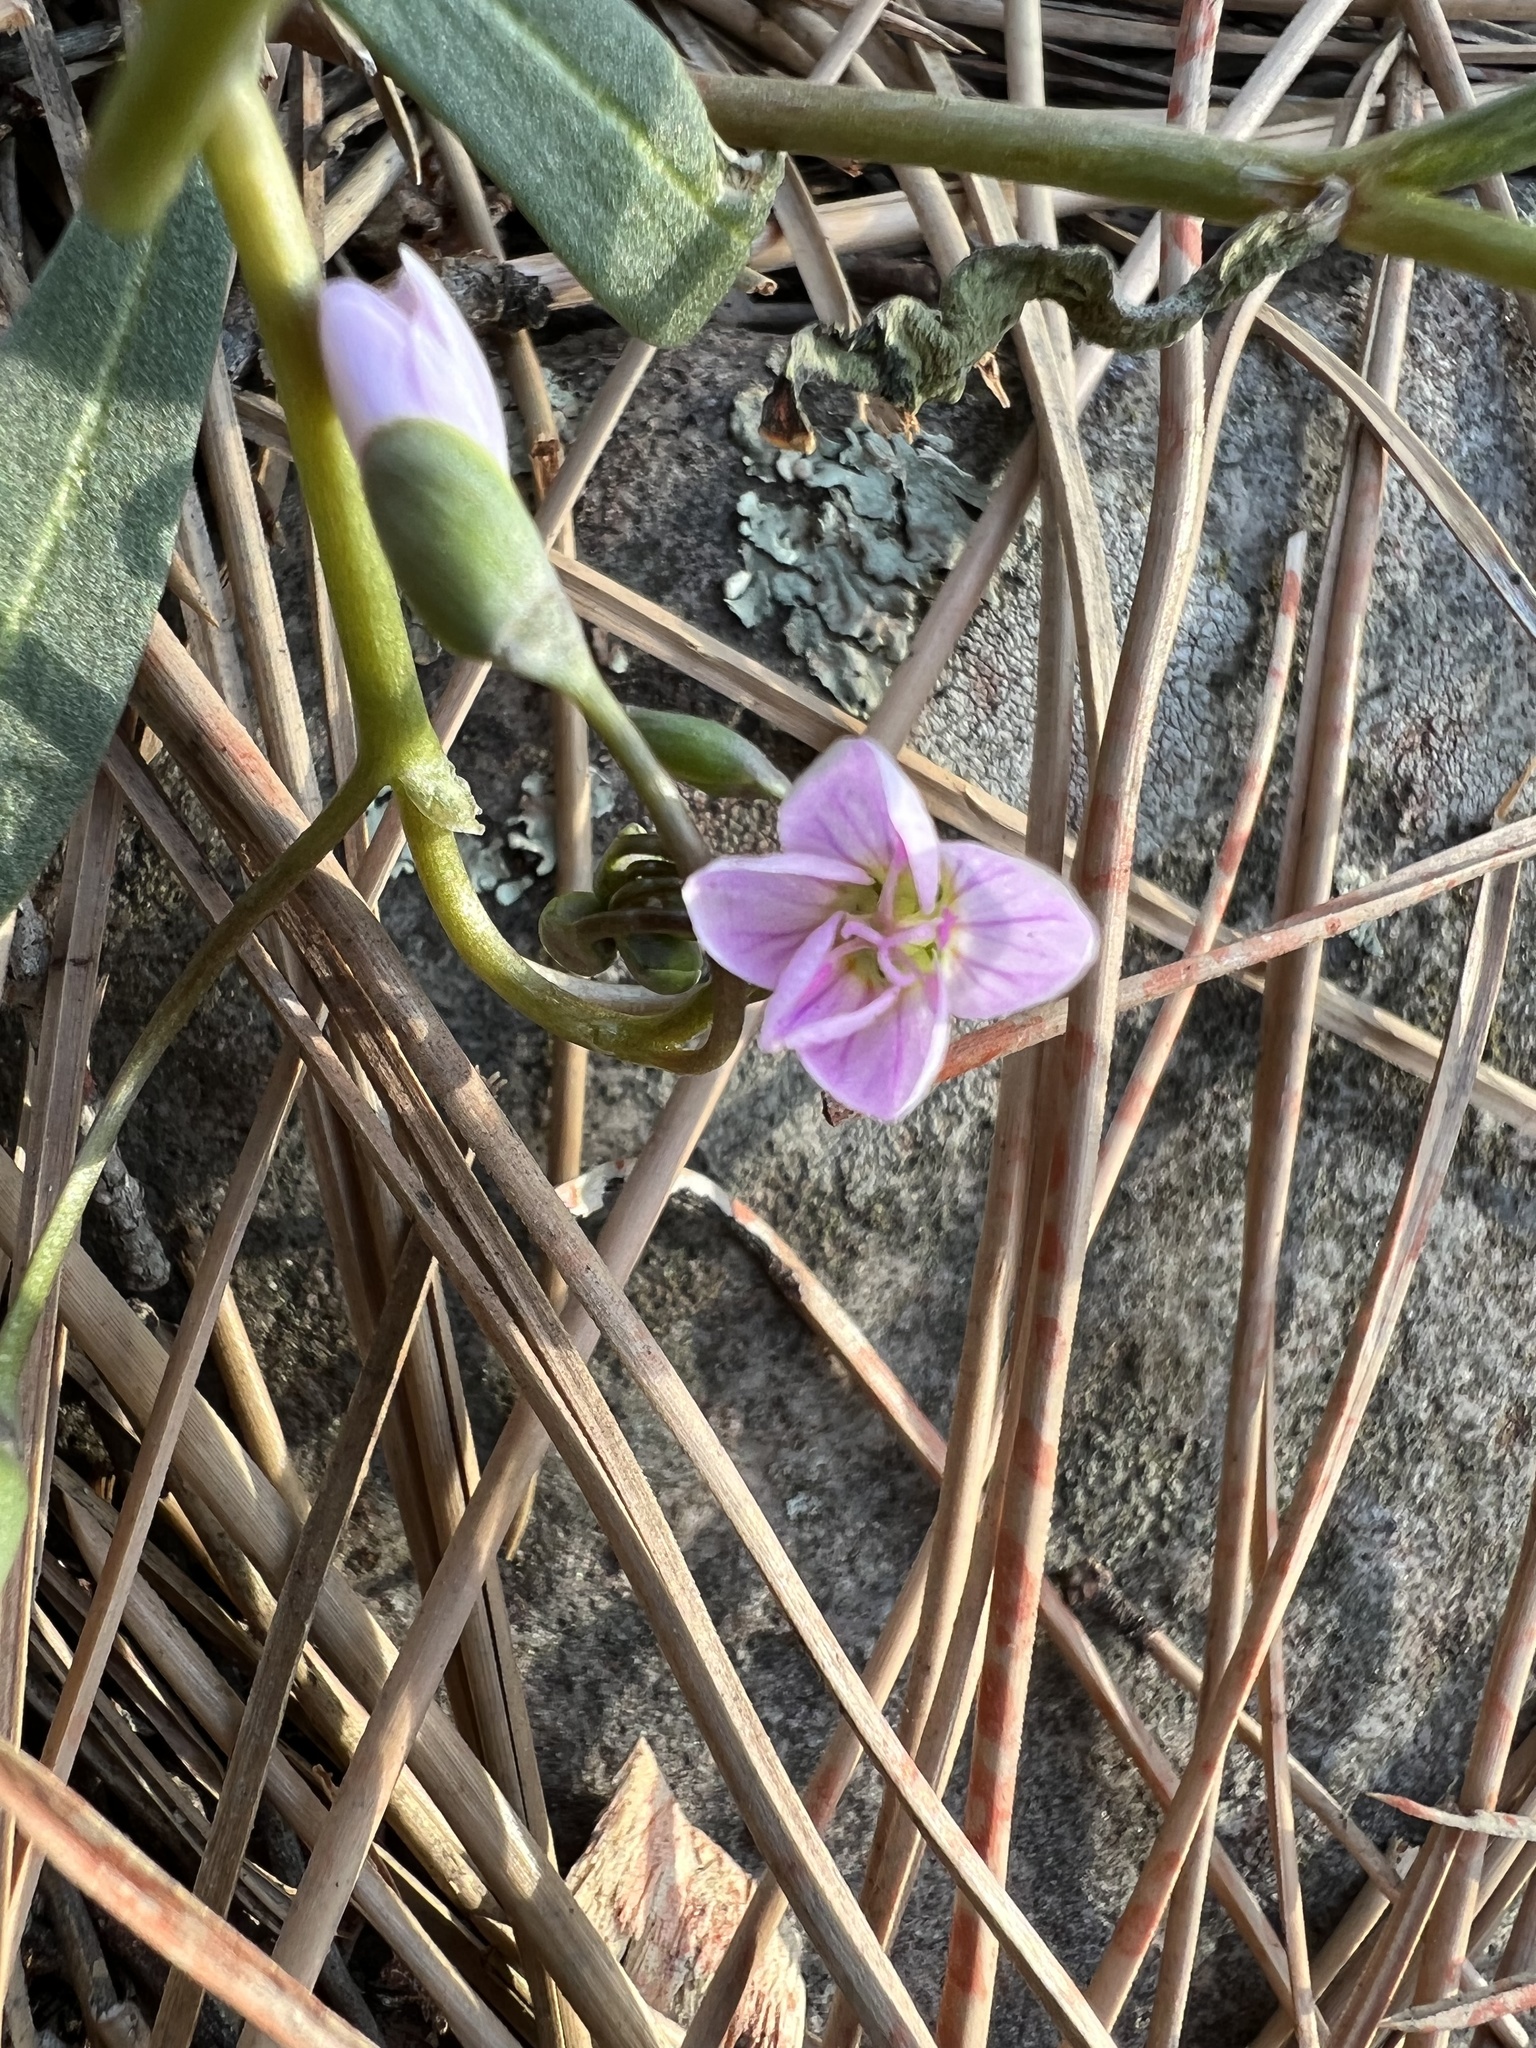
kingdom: Plantae
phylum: Tracheophyta
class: Magnoliopsida
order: Caryophyllales
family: Montiaceae
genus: Claytonia
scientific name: Claytonia rosea
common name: Rocky mountain spring-beauty
